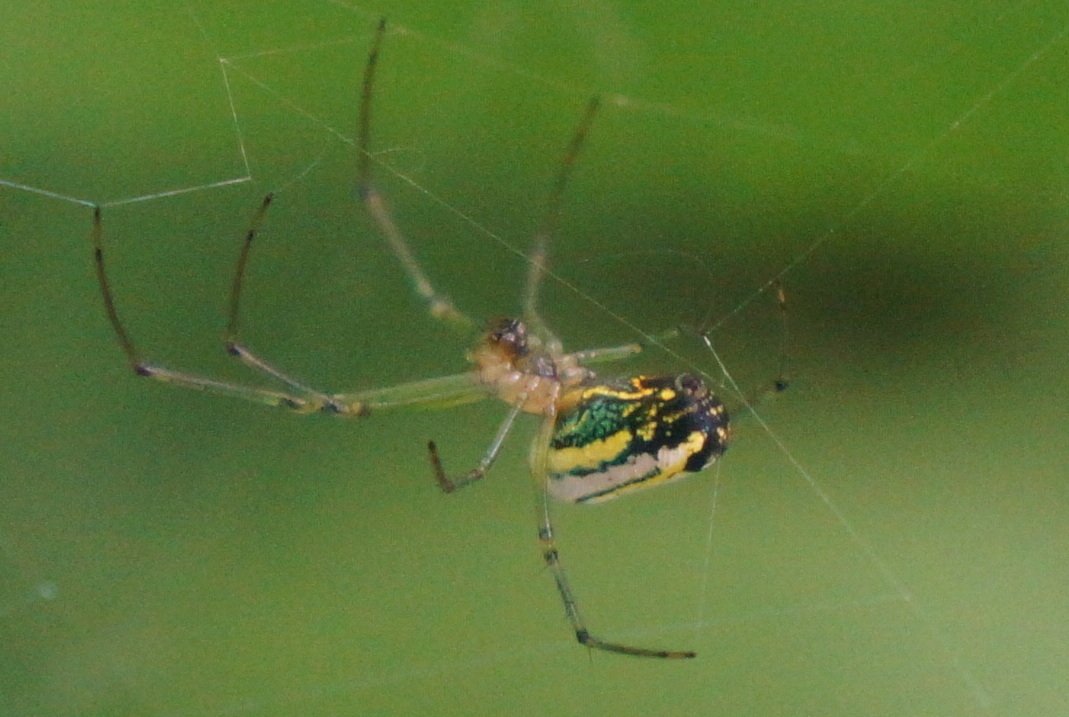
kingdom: Animalia
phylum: Arthropoda
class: Arachnida
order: Araneae
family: Tetragnathidae
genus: Leucauge
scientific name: Leucauge venusta
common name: Longjawed orb weavers
